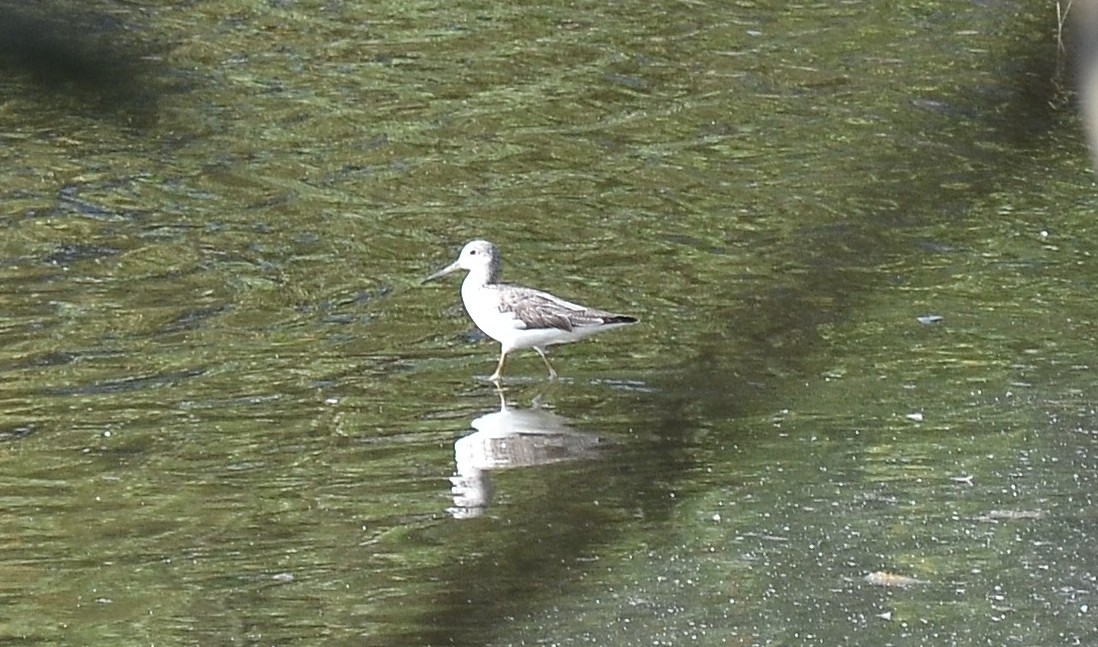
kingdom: Animalia
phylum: Chordata
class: Aves
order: Charadriiformes
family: Scolopacidae
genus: Tringa
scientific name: Tringa nebularia
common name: Common greenshank
